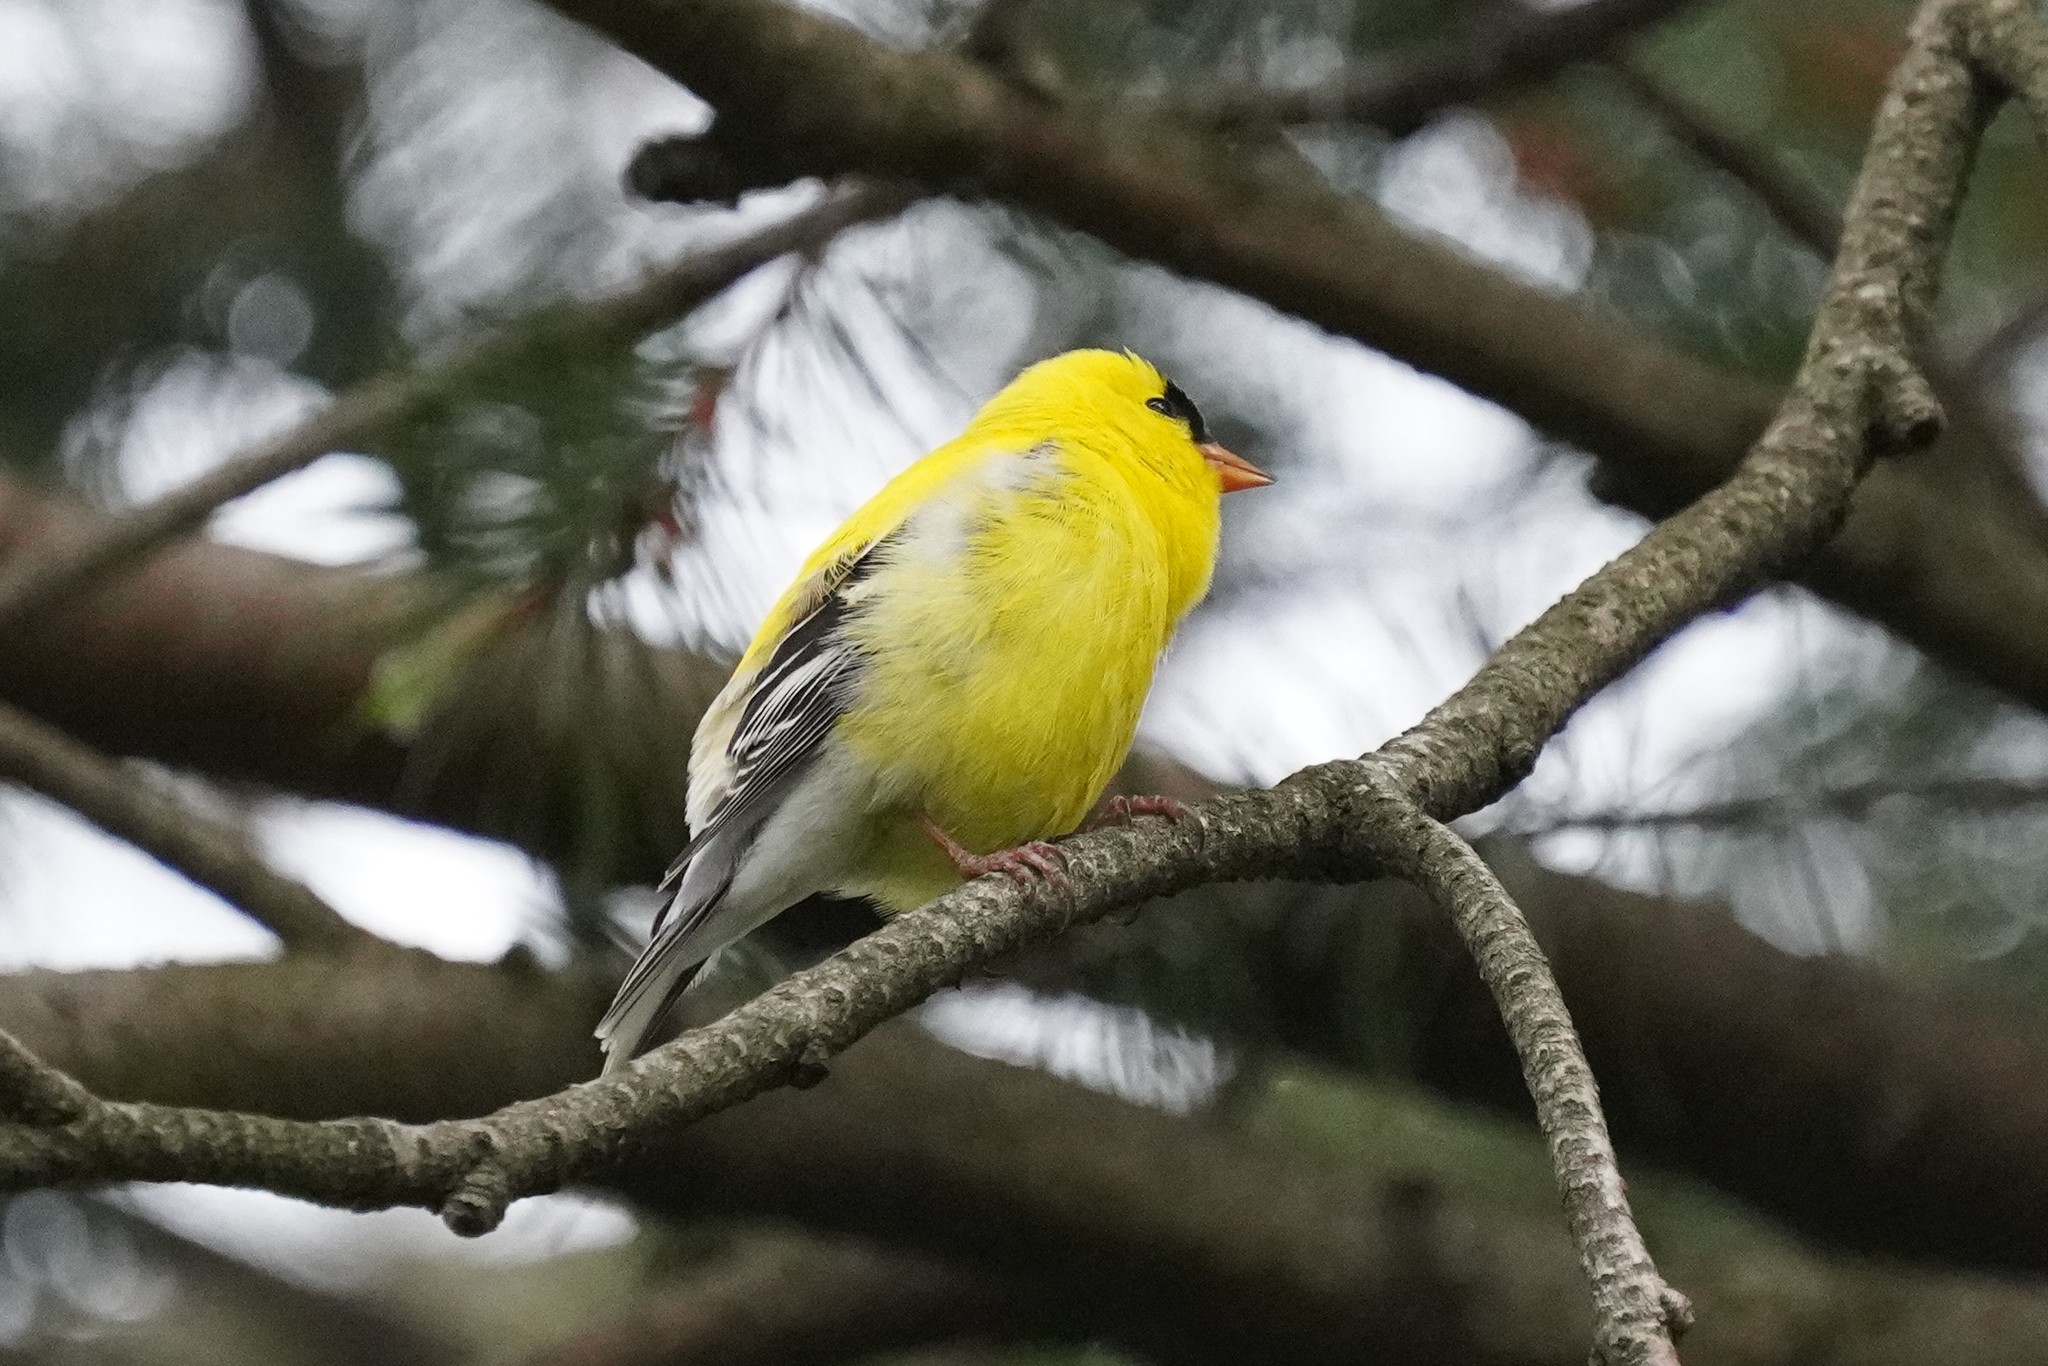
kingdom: Animalia
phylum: Chordata
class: Aves
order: Passeriformes
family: Fringillidae
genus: Spinus
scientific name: Spinus tristis
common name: American goldfinch
